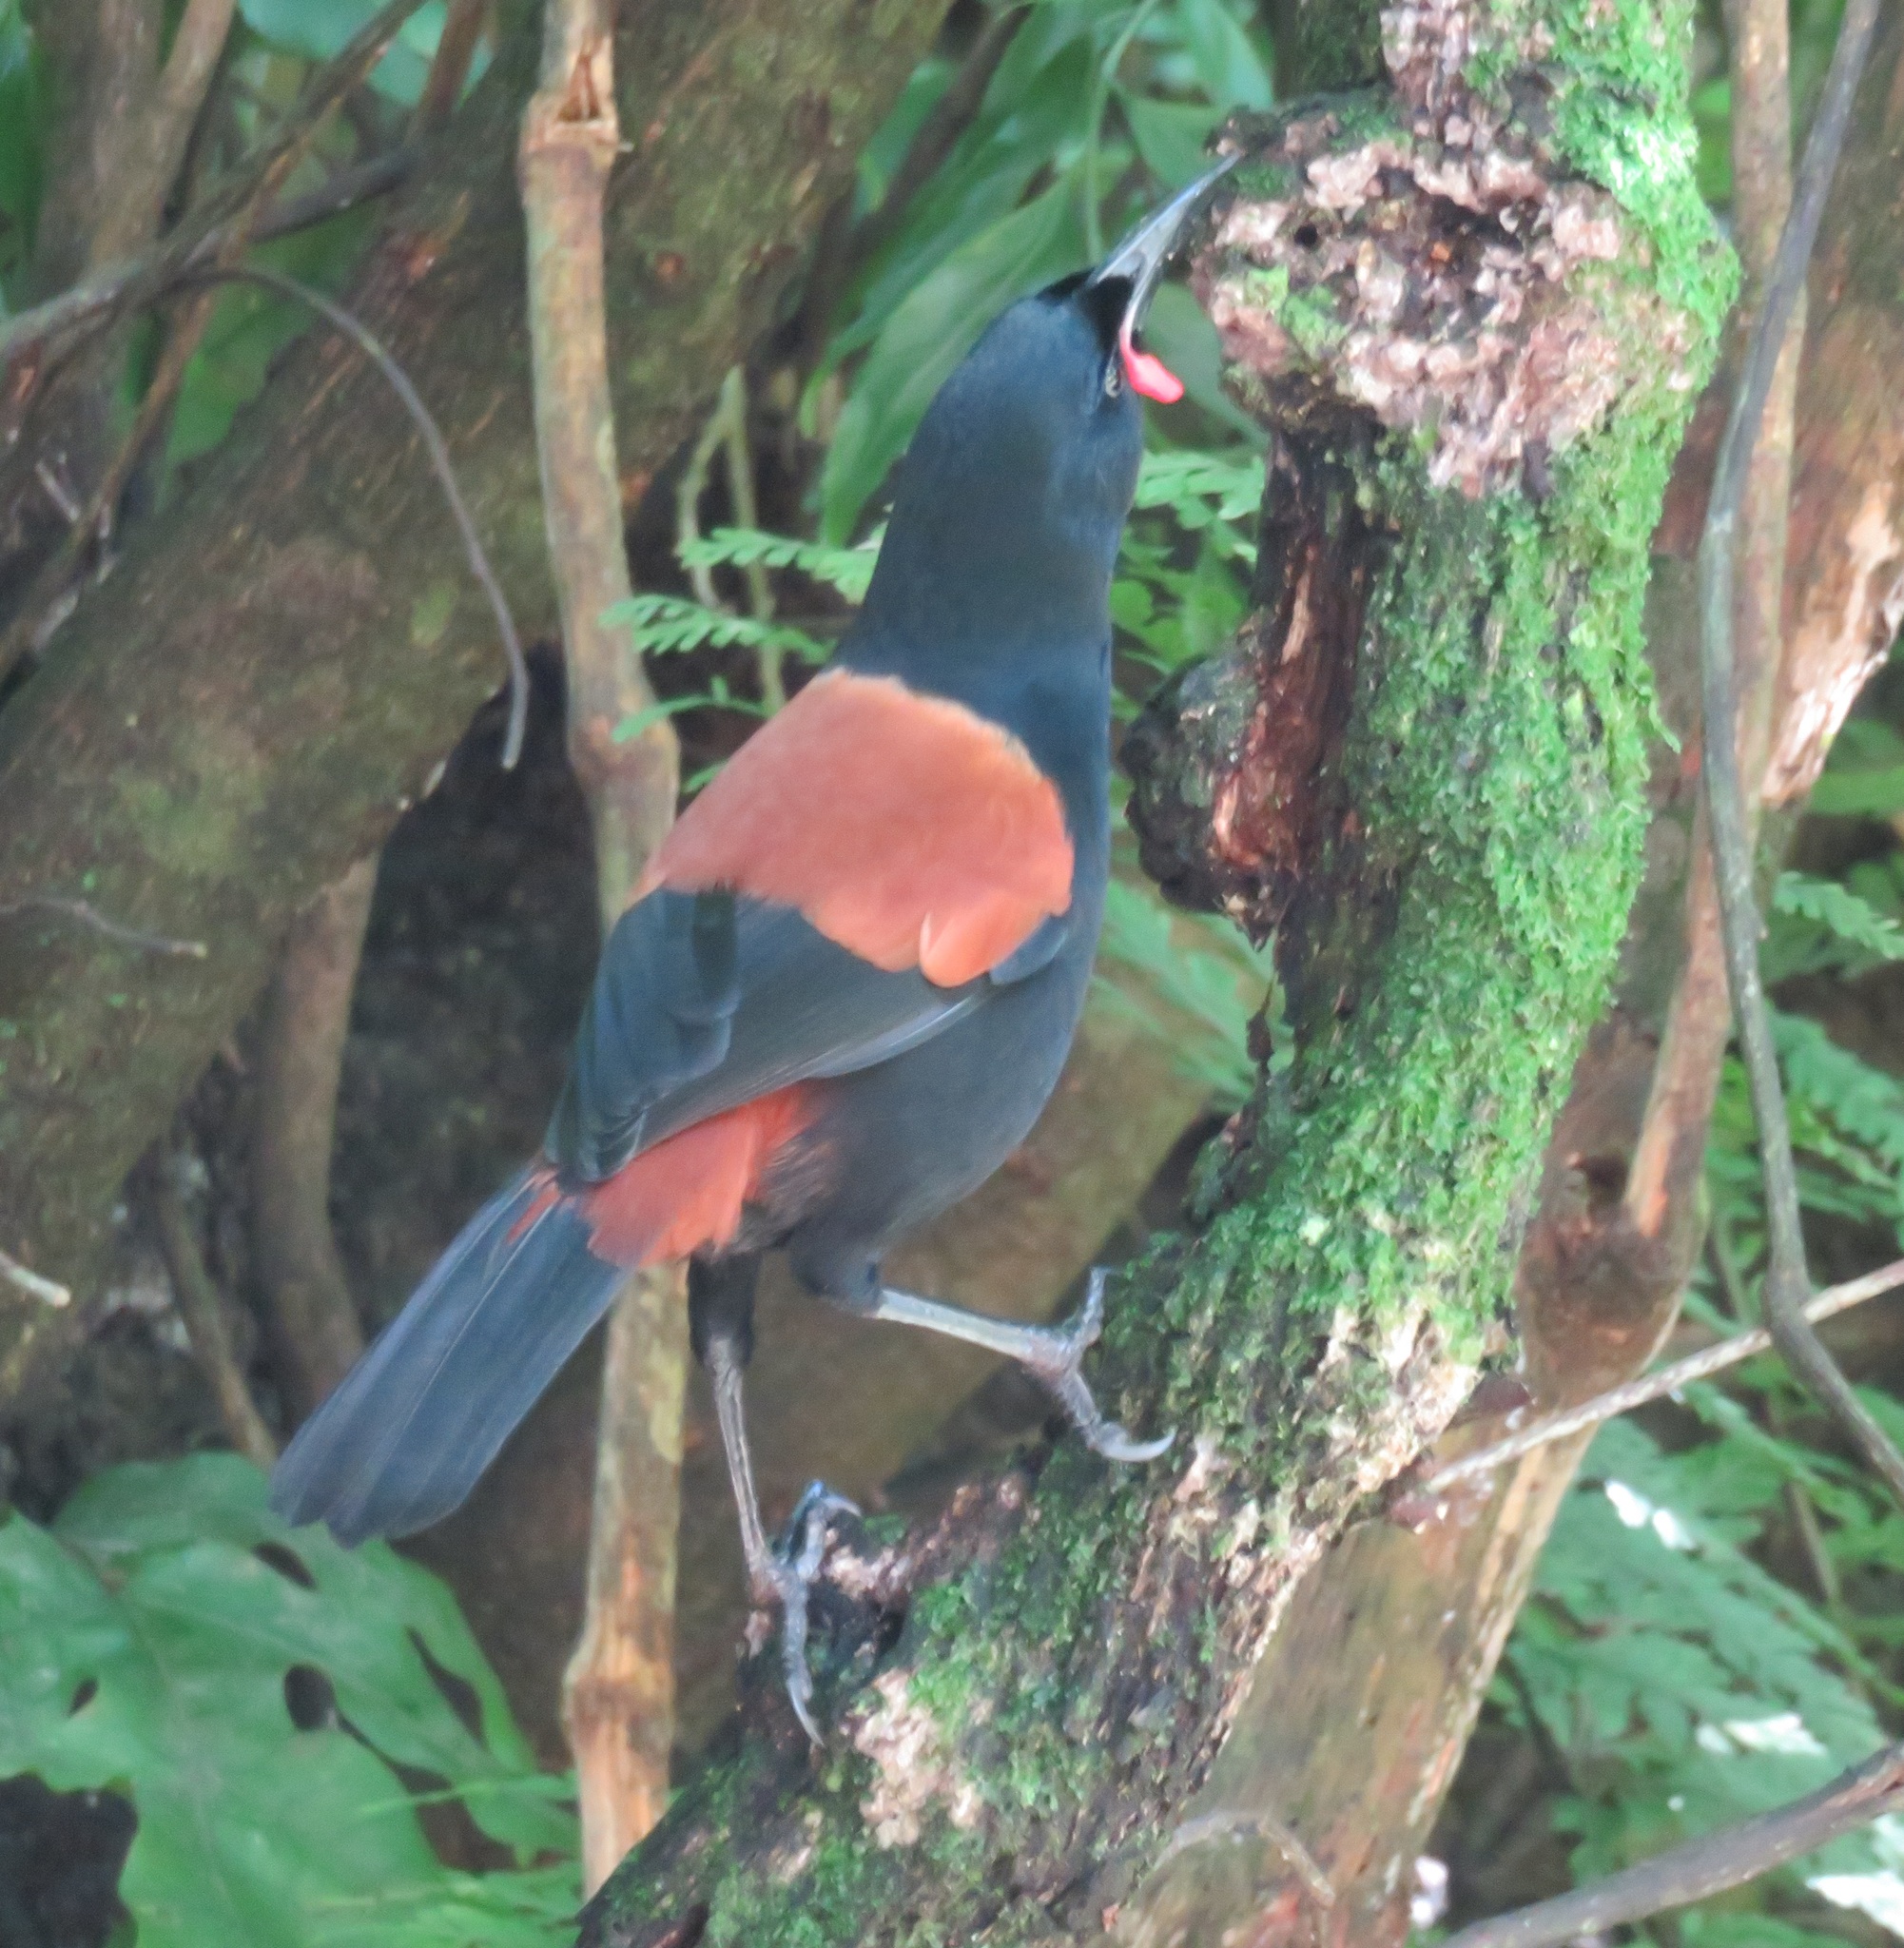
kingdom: Animalia
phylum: Chordata
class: Aves
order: Passeriformes
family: Callaeatidae
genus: Philesturnus
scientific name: Philesturnus carunculatus
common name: South island saddleback
